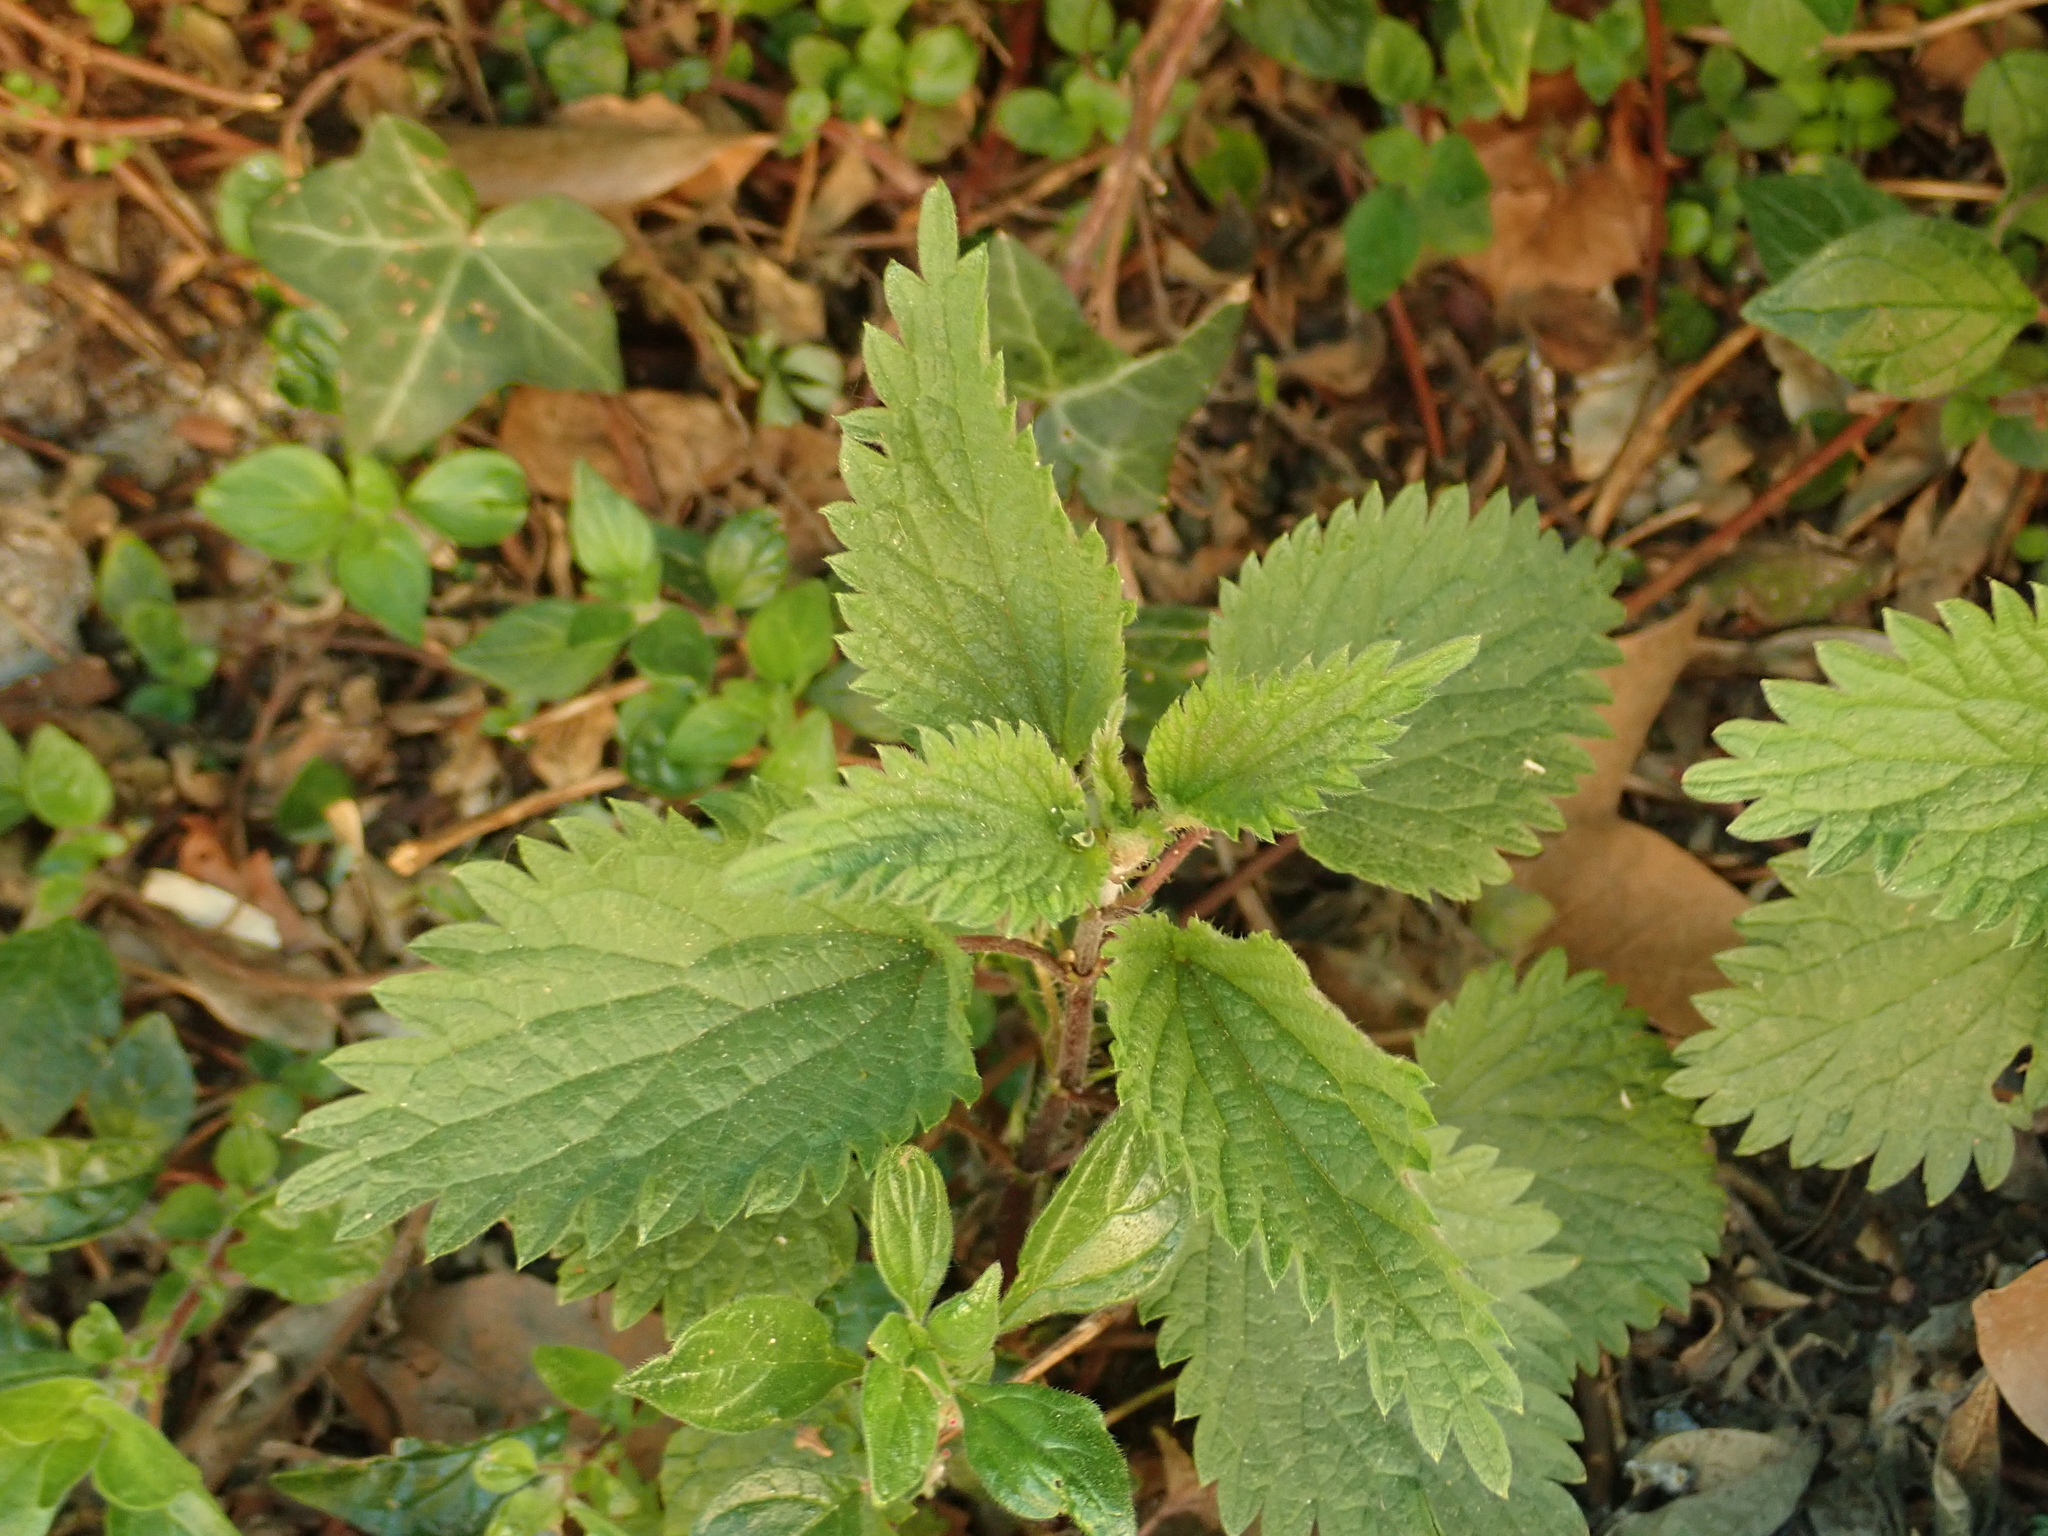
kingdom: Plantae
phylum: Tracheophyta
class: Magnoliopsida
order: Rosales
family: Urticaceae
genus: Urtica
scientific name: Urtica dioica
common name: Common nettle
